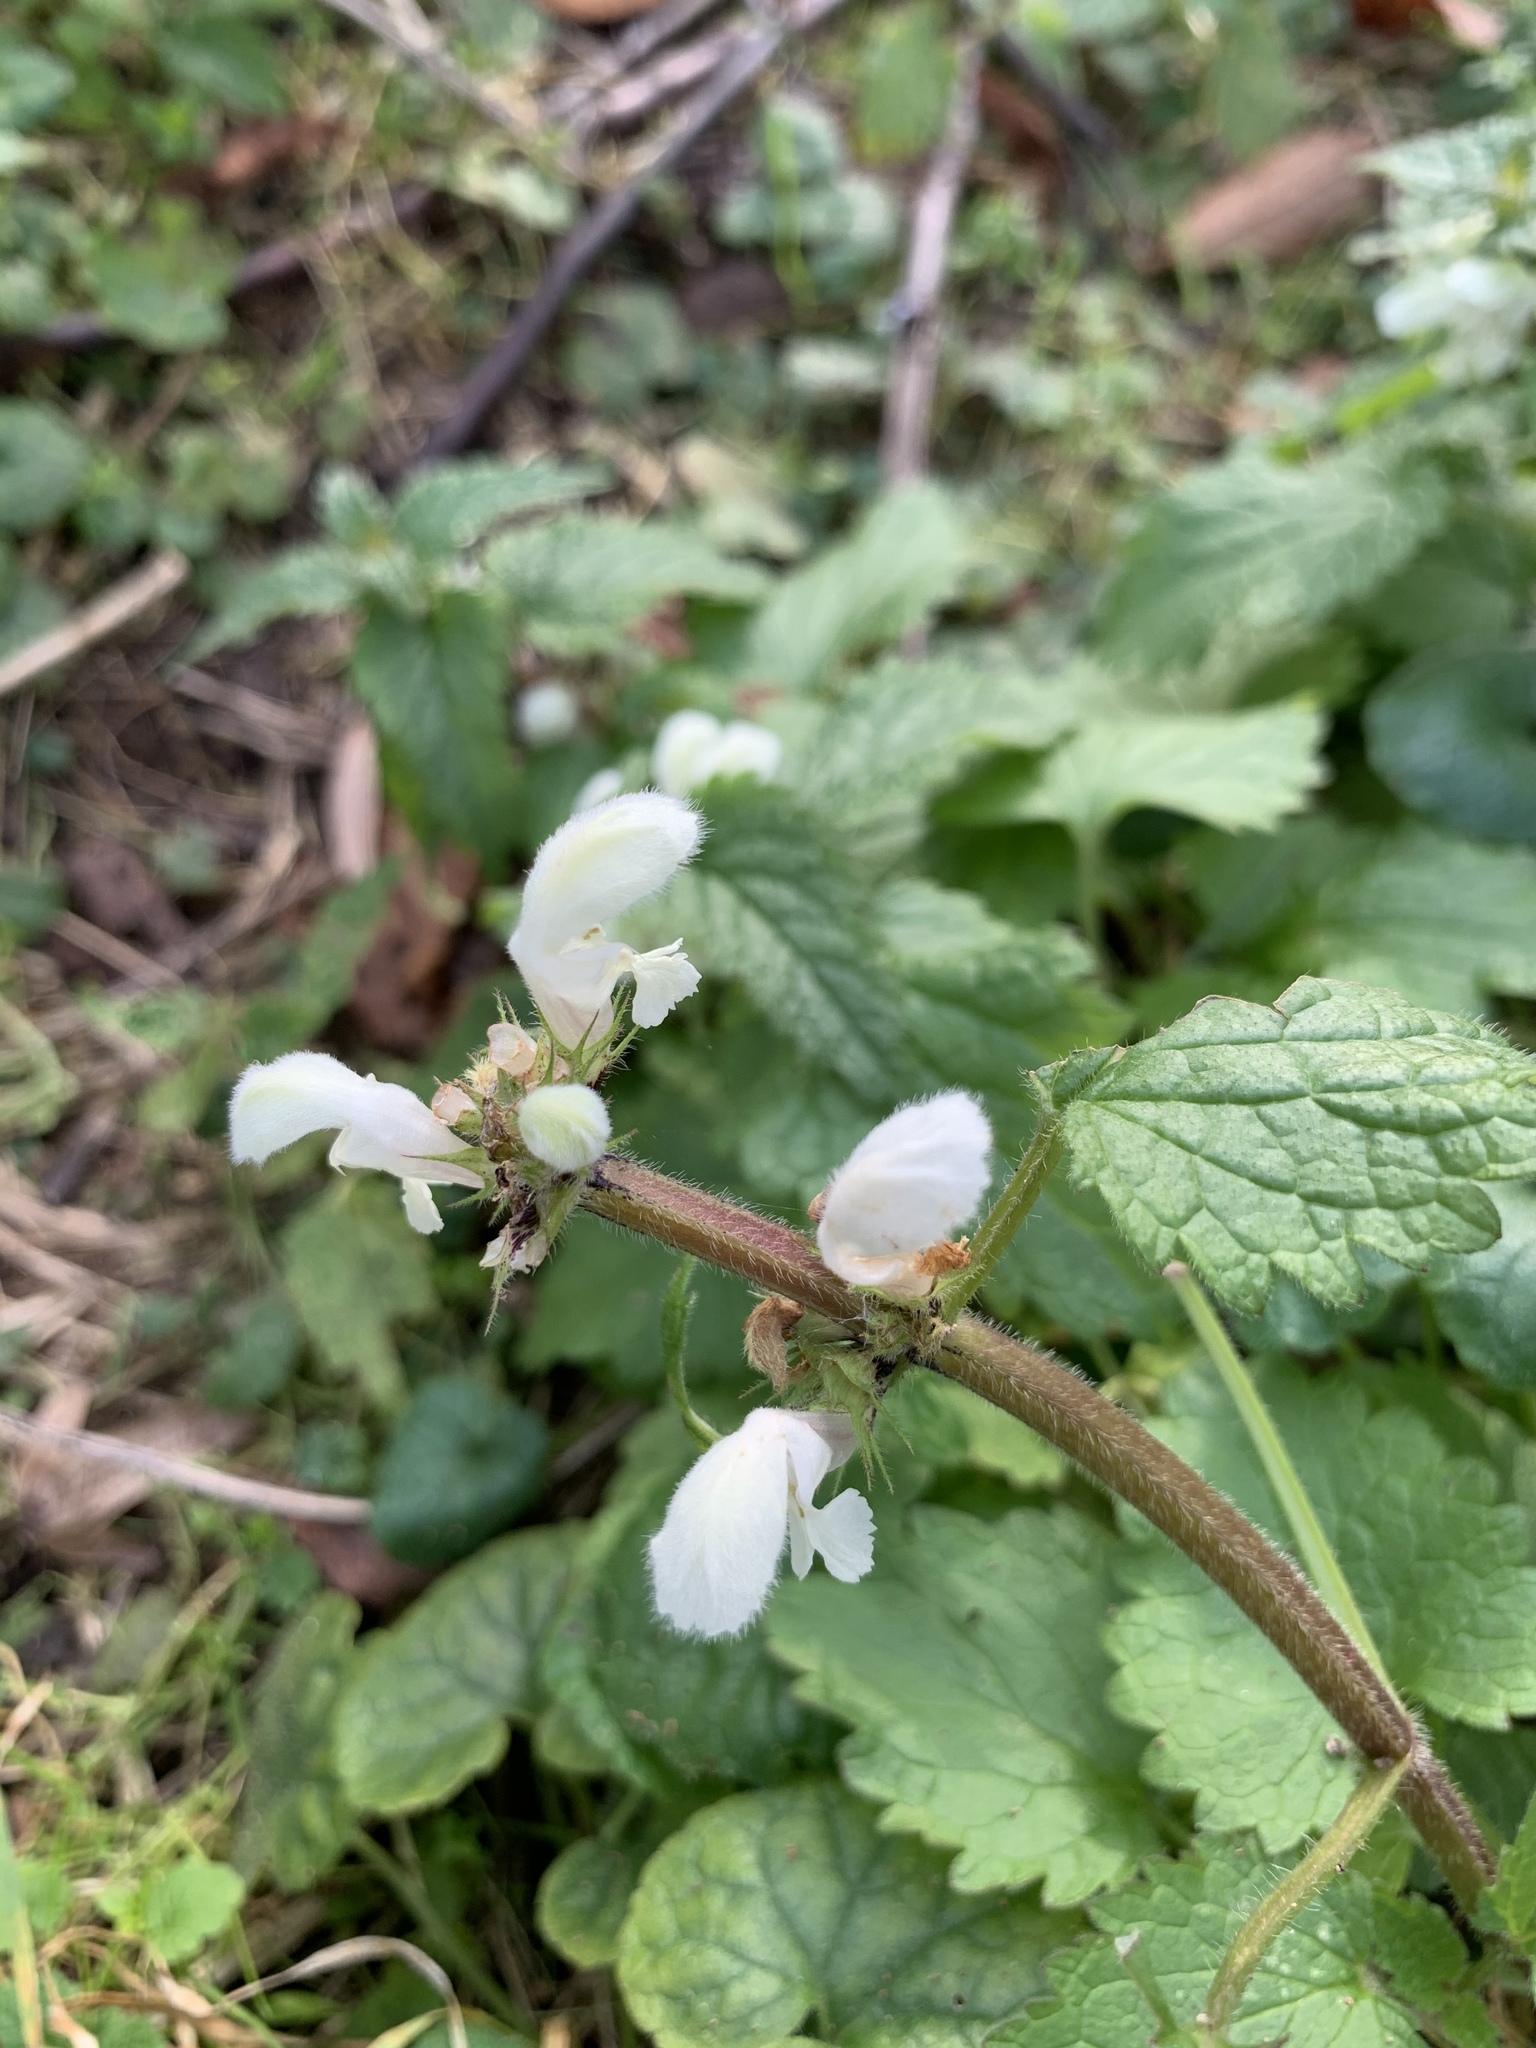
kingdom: Plantae
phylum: Tracheophyta
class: Magnoliopsida
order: Lamiales
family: Lamiaceae
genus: Lamium
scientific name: Lamium album
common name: White dead-nettle
